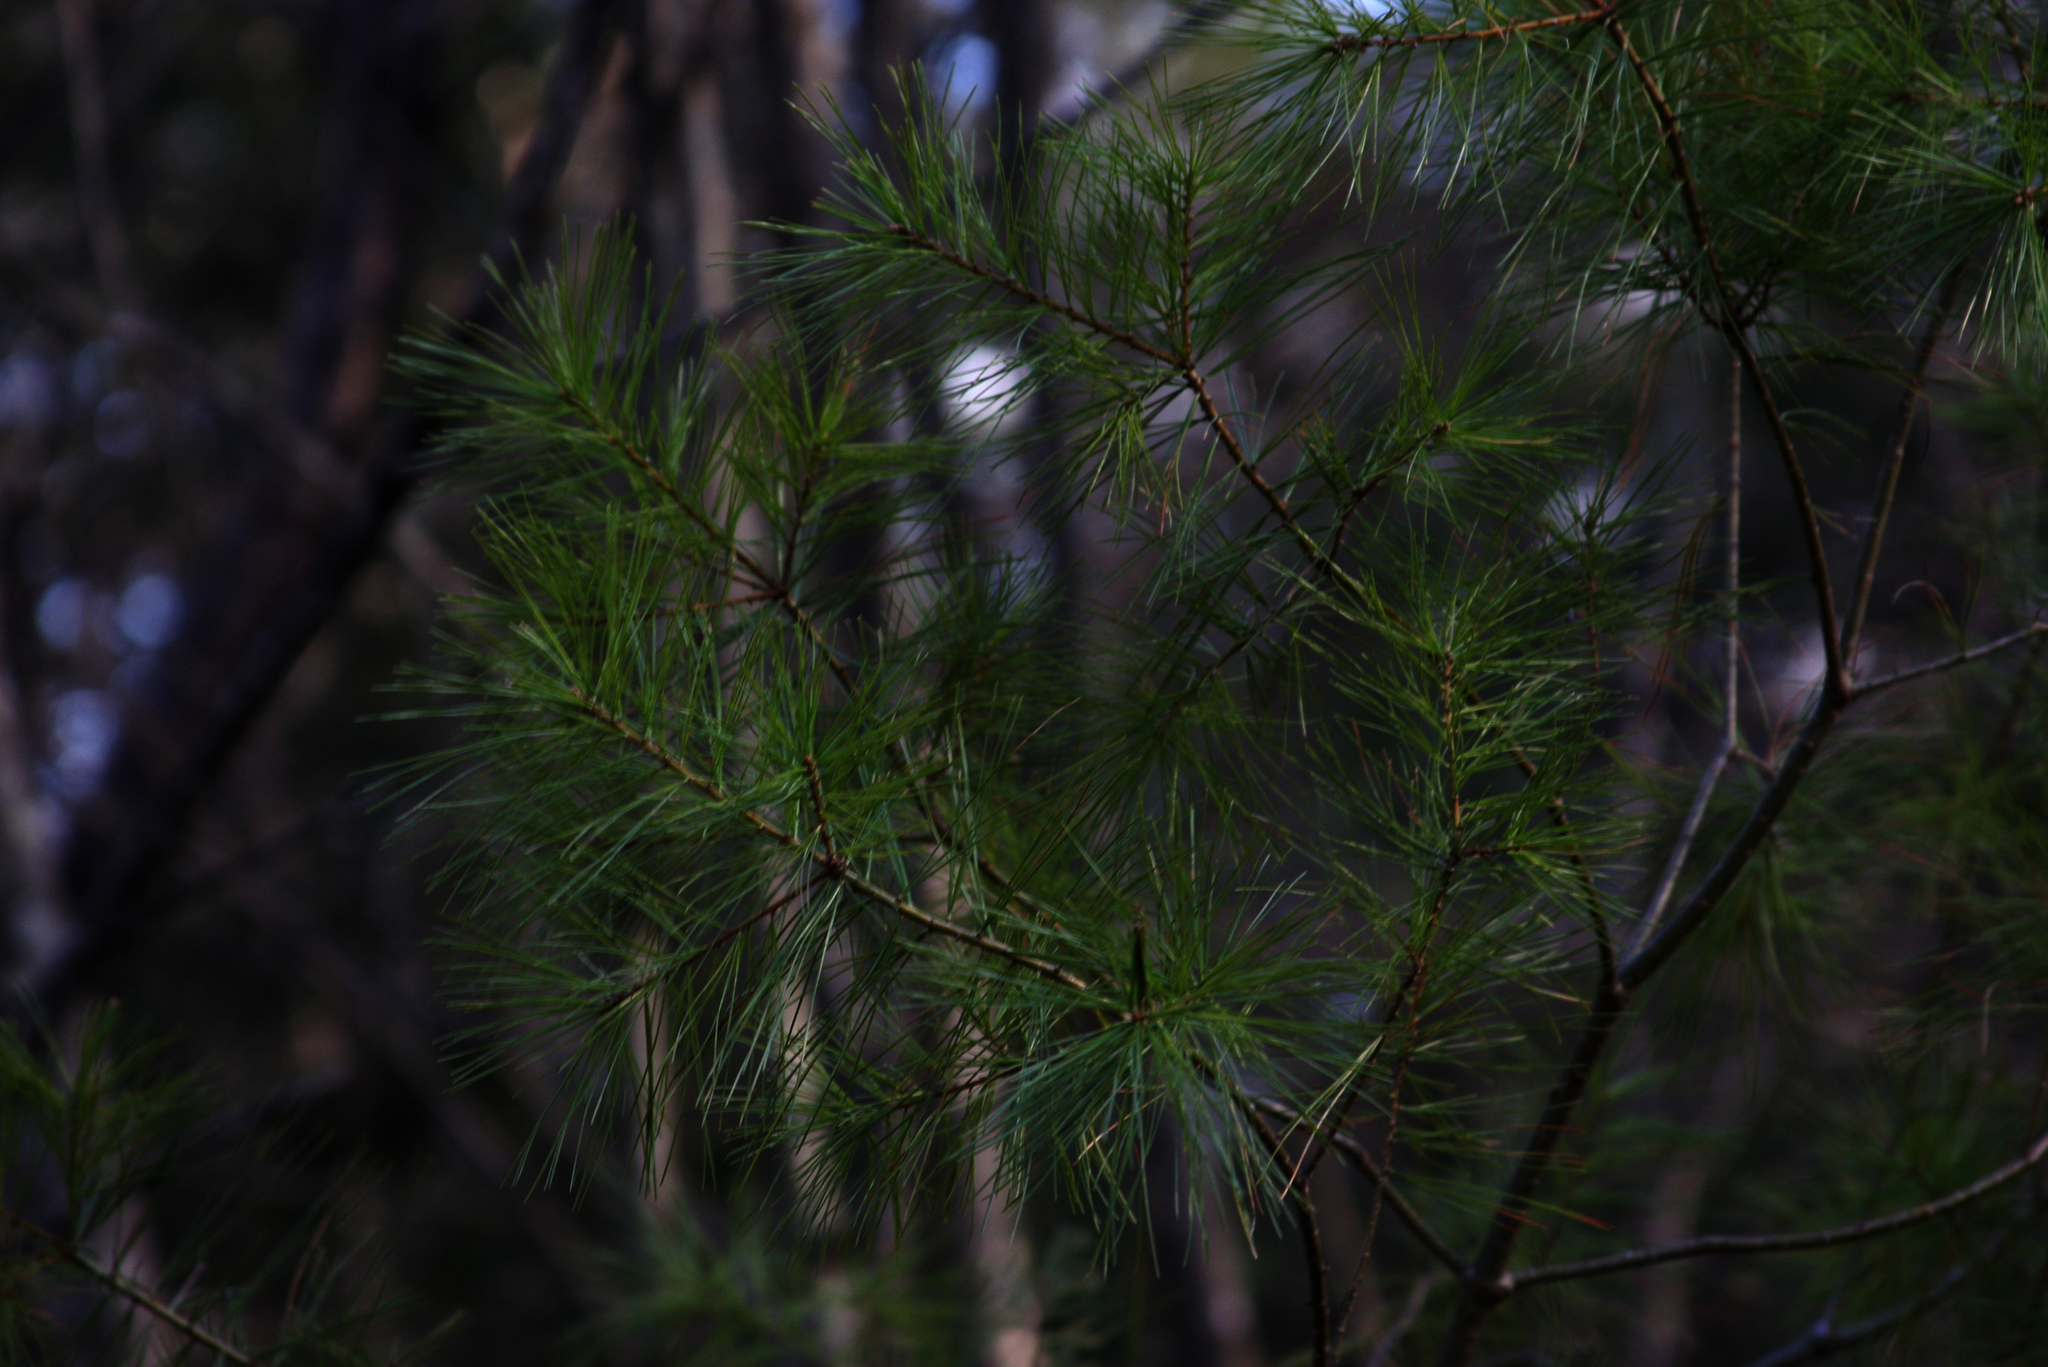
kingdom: Plantae
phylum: Tracheophyta
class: Pinopsida
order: Pinales
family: Pinaceae
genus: Pinus
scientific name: Pinus strobus
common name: Weymouth pine
